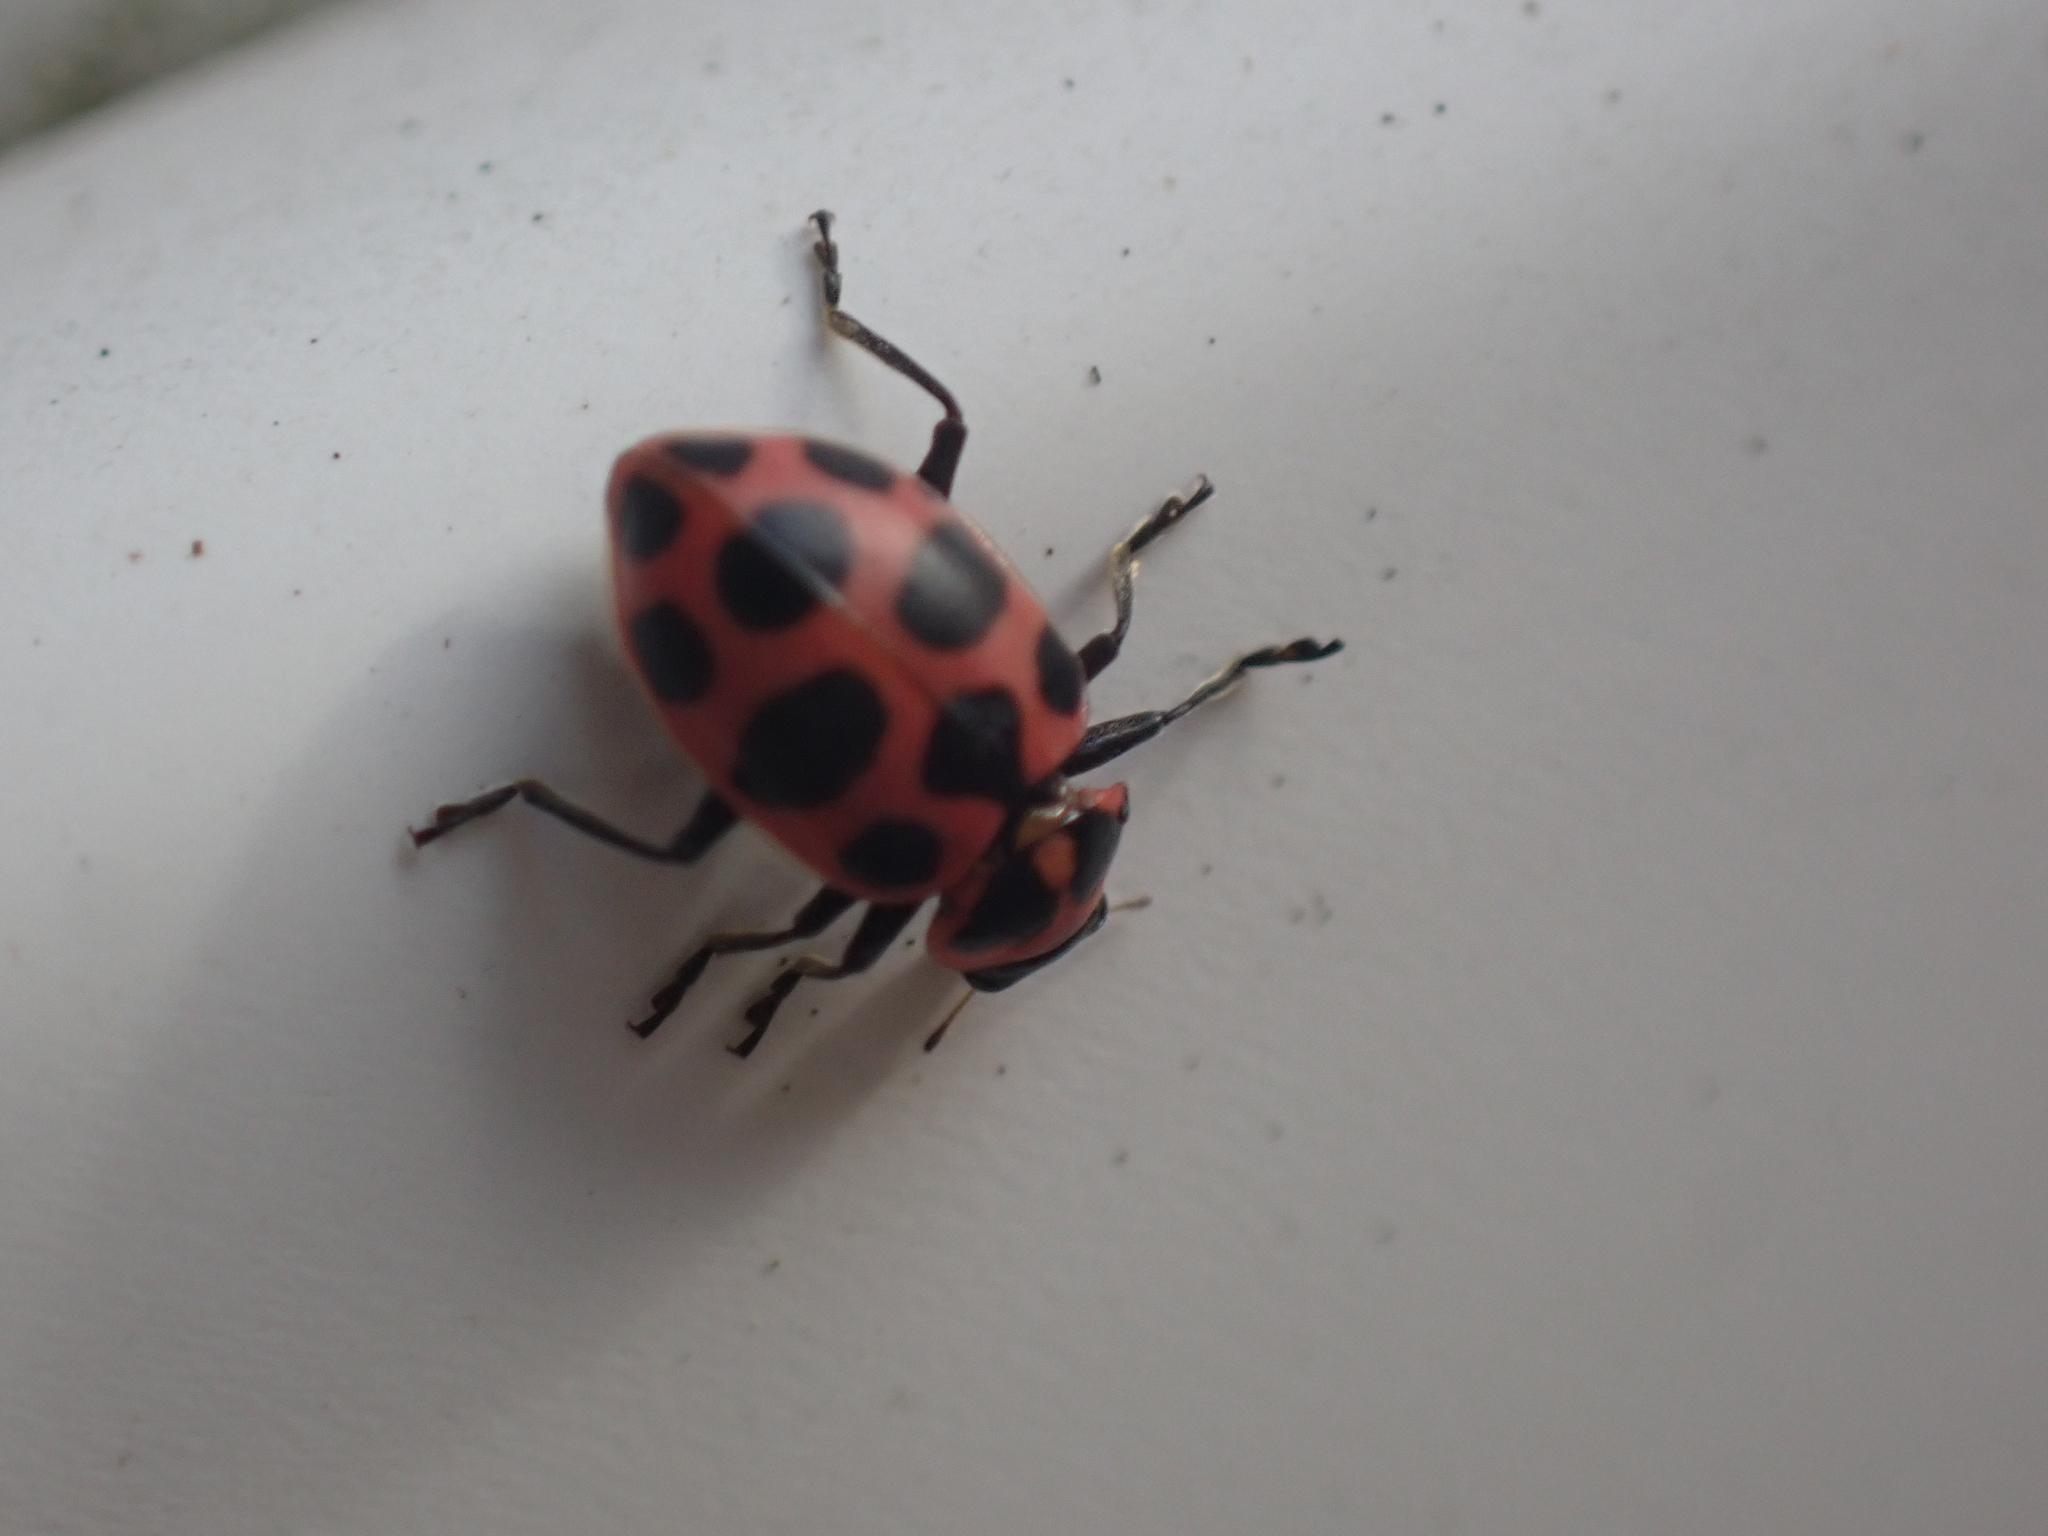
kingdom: Animalia
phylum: Arthropoda
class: Insecta
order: Coleoptera
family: Coccinellidae
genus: Coleomegilla
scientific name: Coleomegilla maculata
